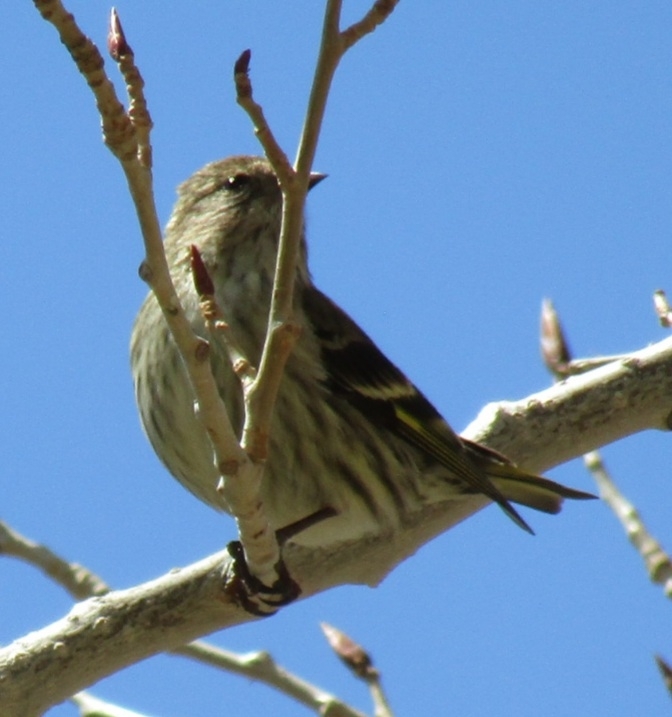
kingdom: Animalia
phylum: Chordata
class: Aves
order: Passeriformes
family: Fringillidae
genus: Spinus
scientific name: Spinus pinus
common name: Pine siskin
